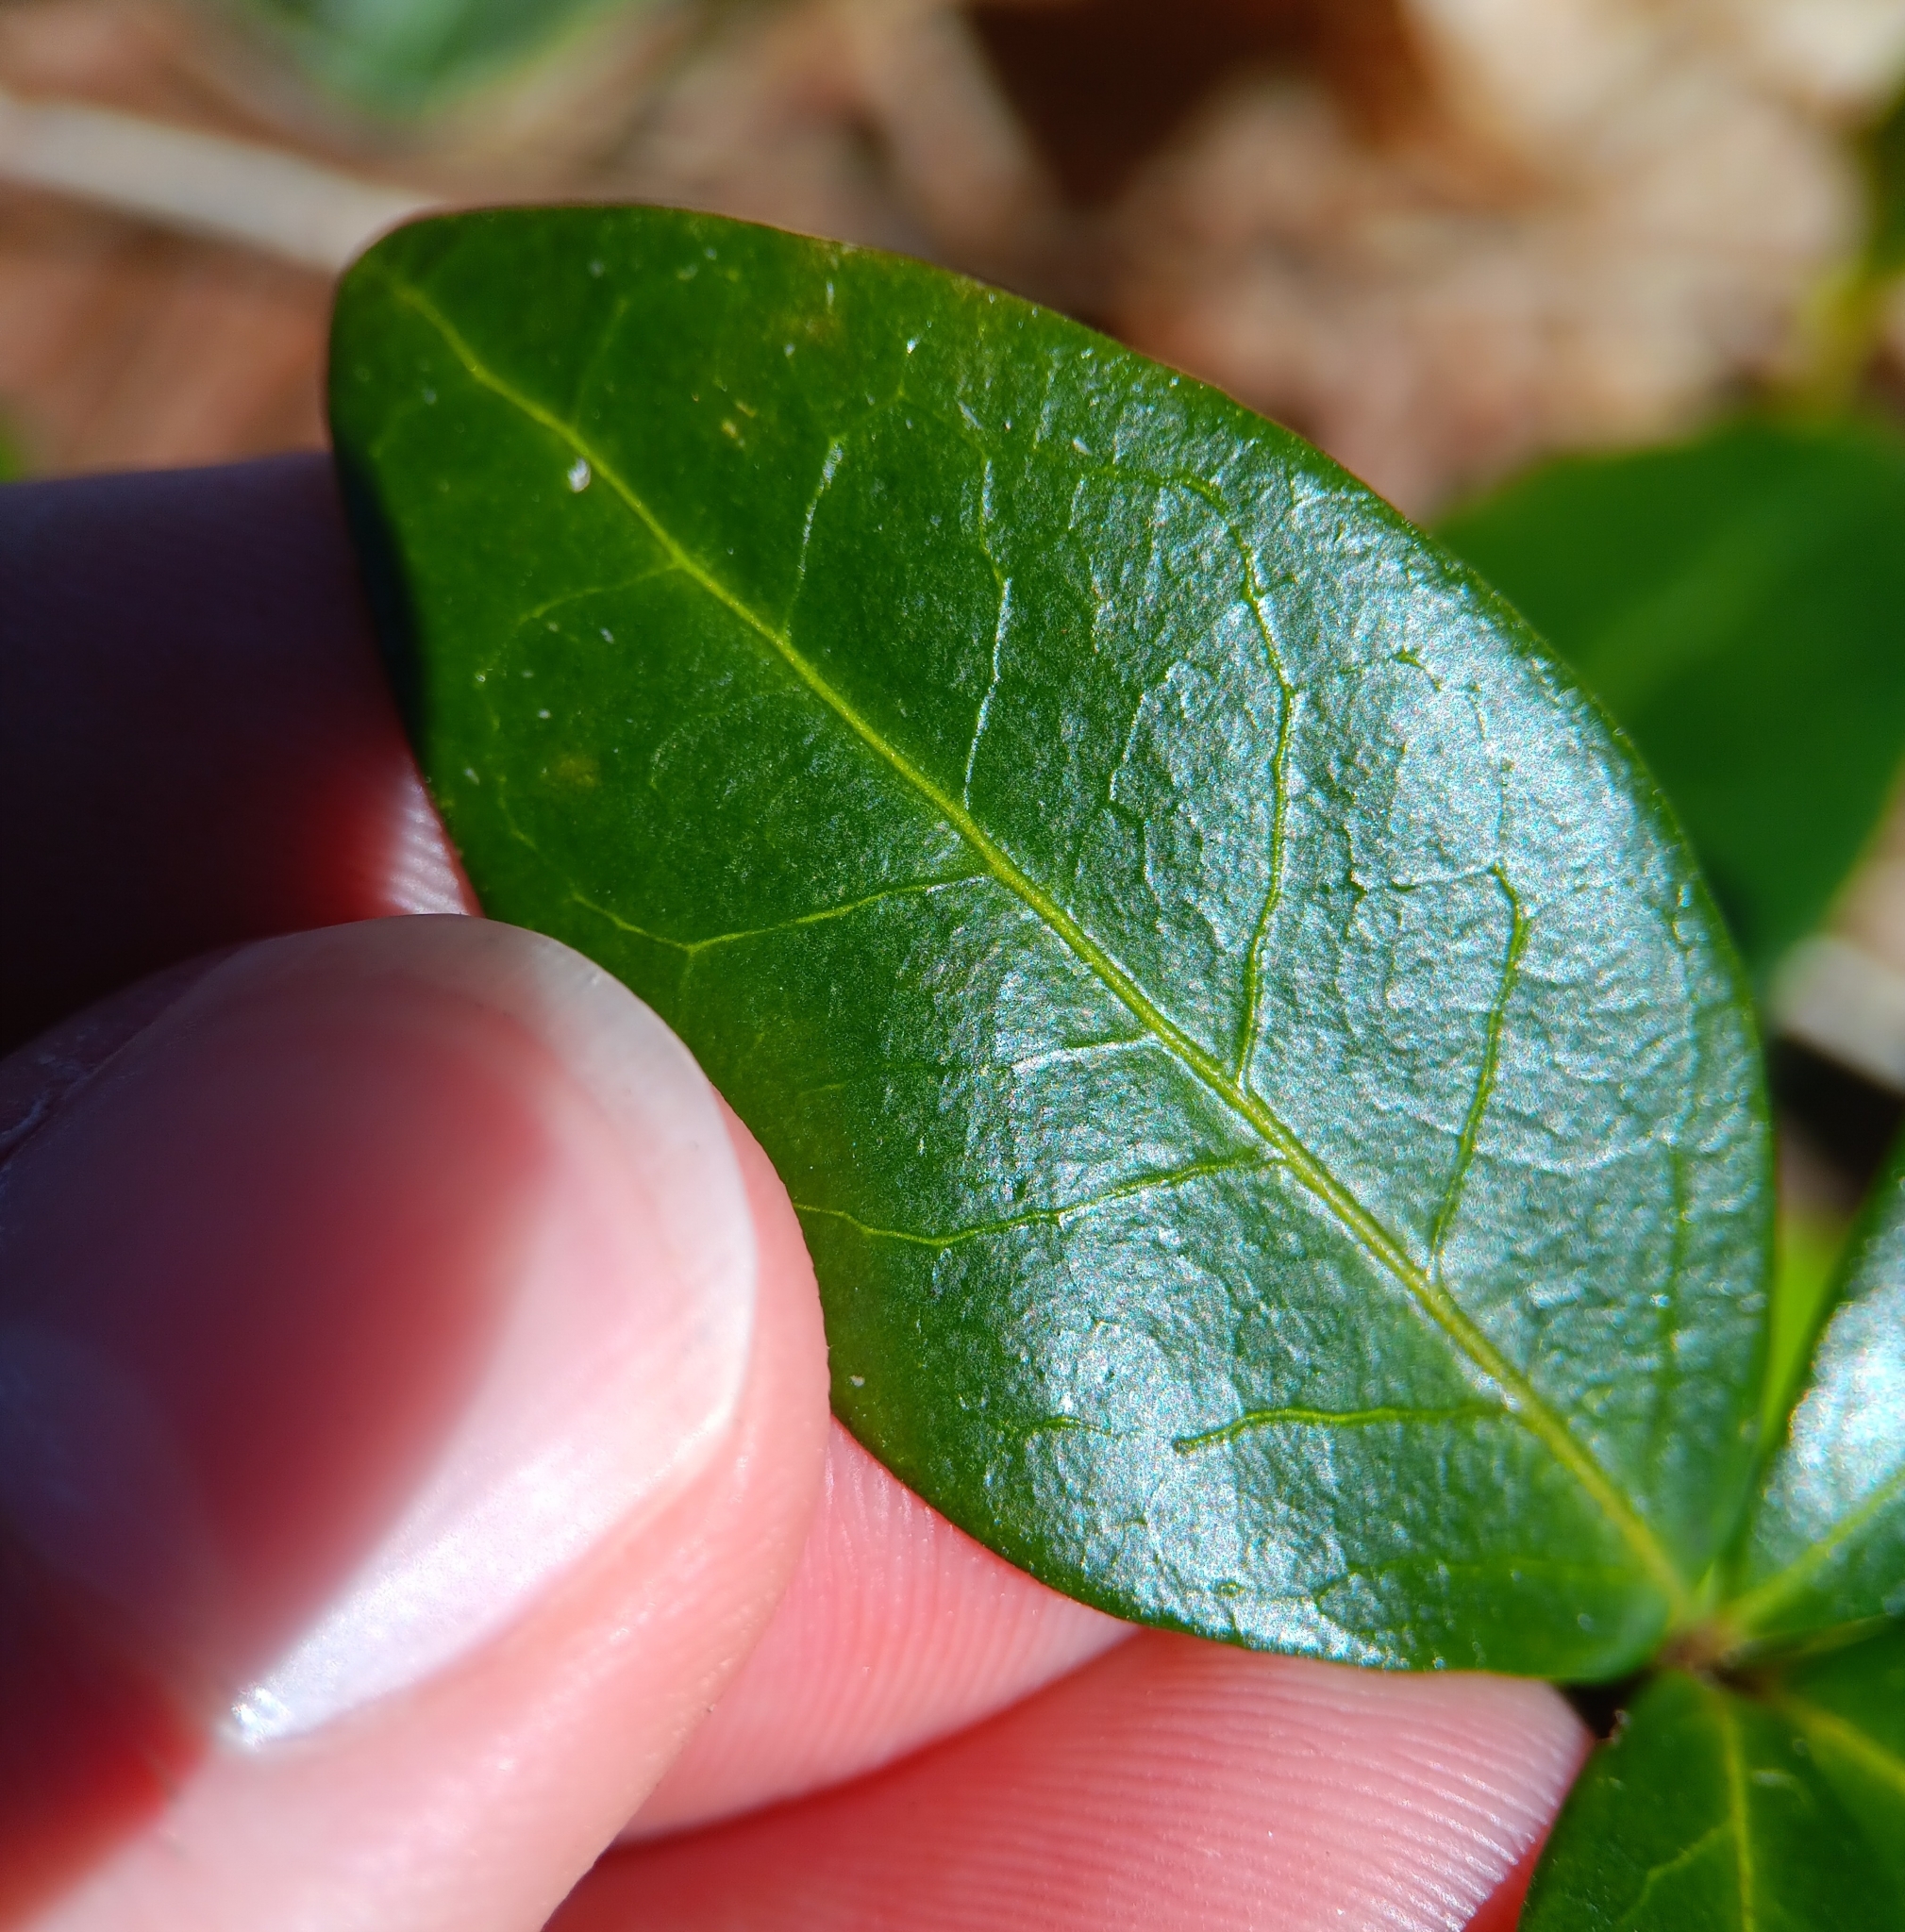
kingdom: Plantae
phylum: Tracheophyta
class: Magnoliopsida
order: Gentianales
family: Apocynaceae
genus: Vinca
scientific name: Vinca minor
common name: Lesser periwinkle
